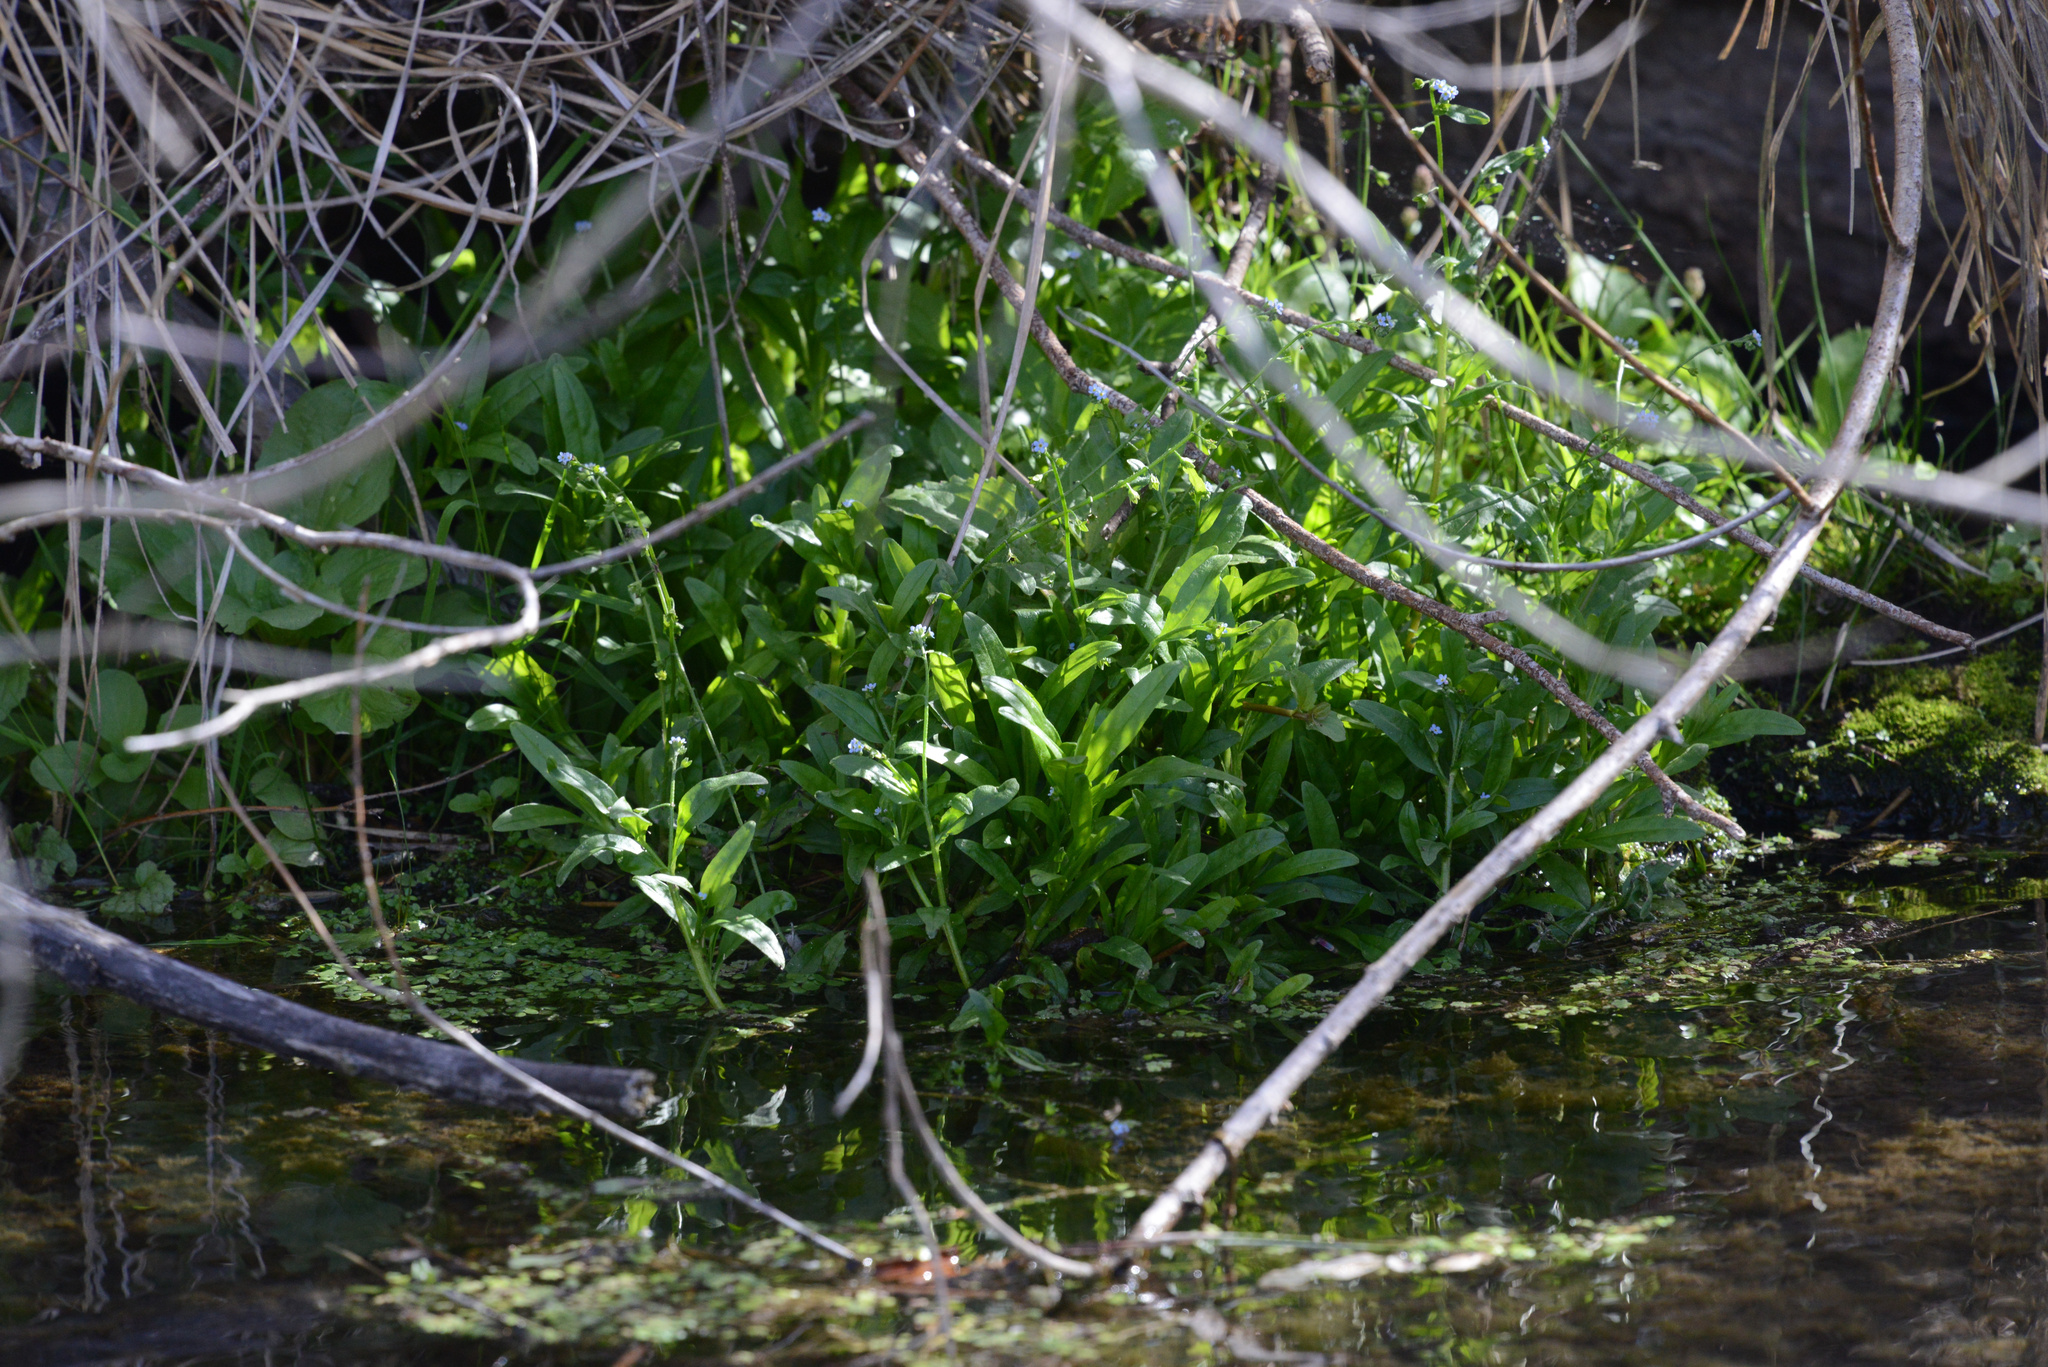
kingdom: Plantae
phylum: Tracheophyta
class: Magnoliopsida
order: Boraginales
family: Boraginaceae
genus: Myosotis
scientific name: Myosotis laxa
